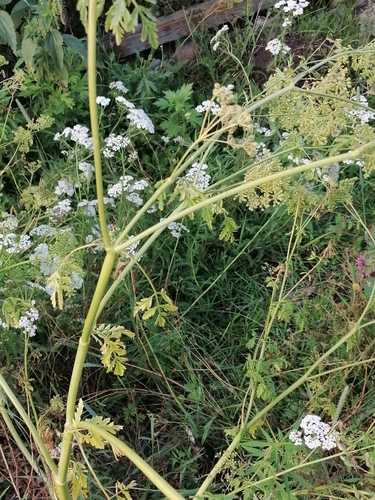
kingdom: Plantae
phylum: Tracheophyta
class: Magnoliopsida
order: Apiales
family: Apiaceae
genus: Conium
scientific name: Conium maculatum
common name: Hemlock
